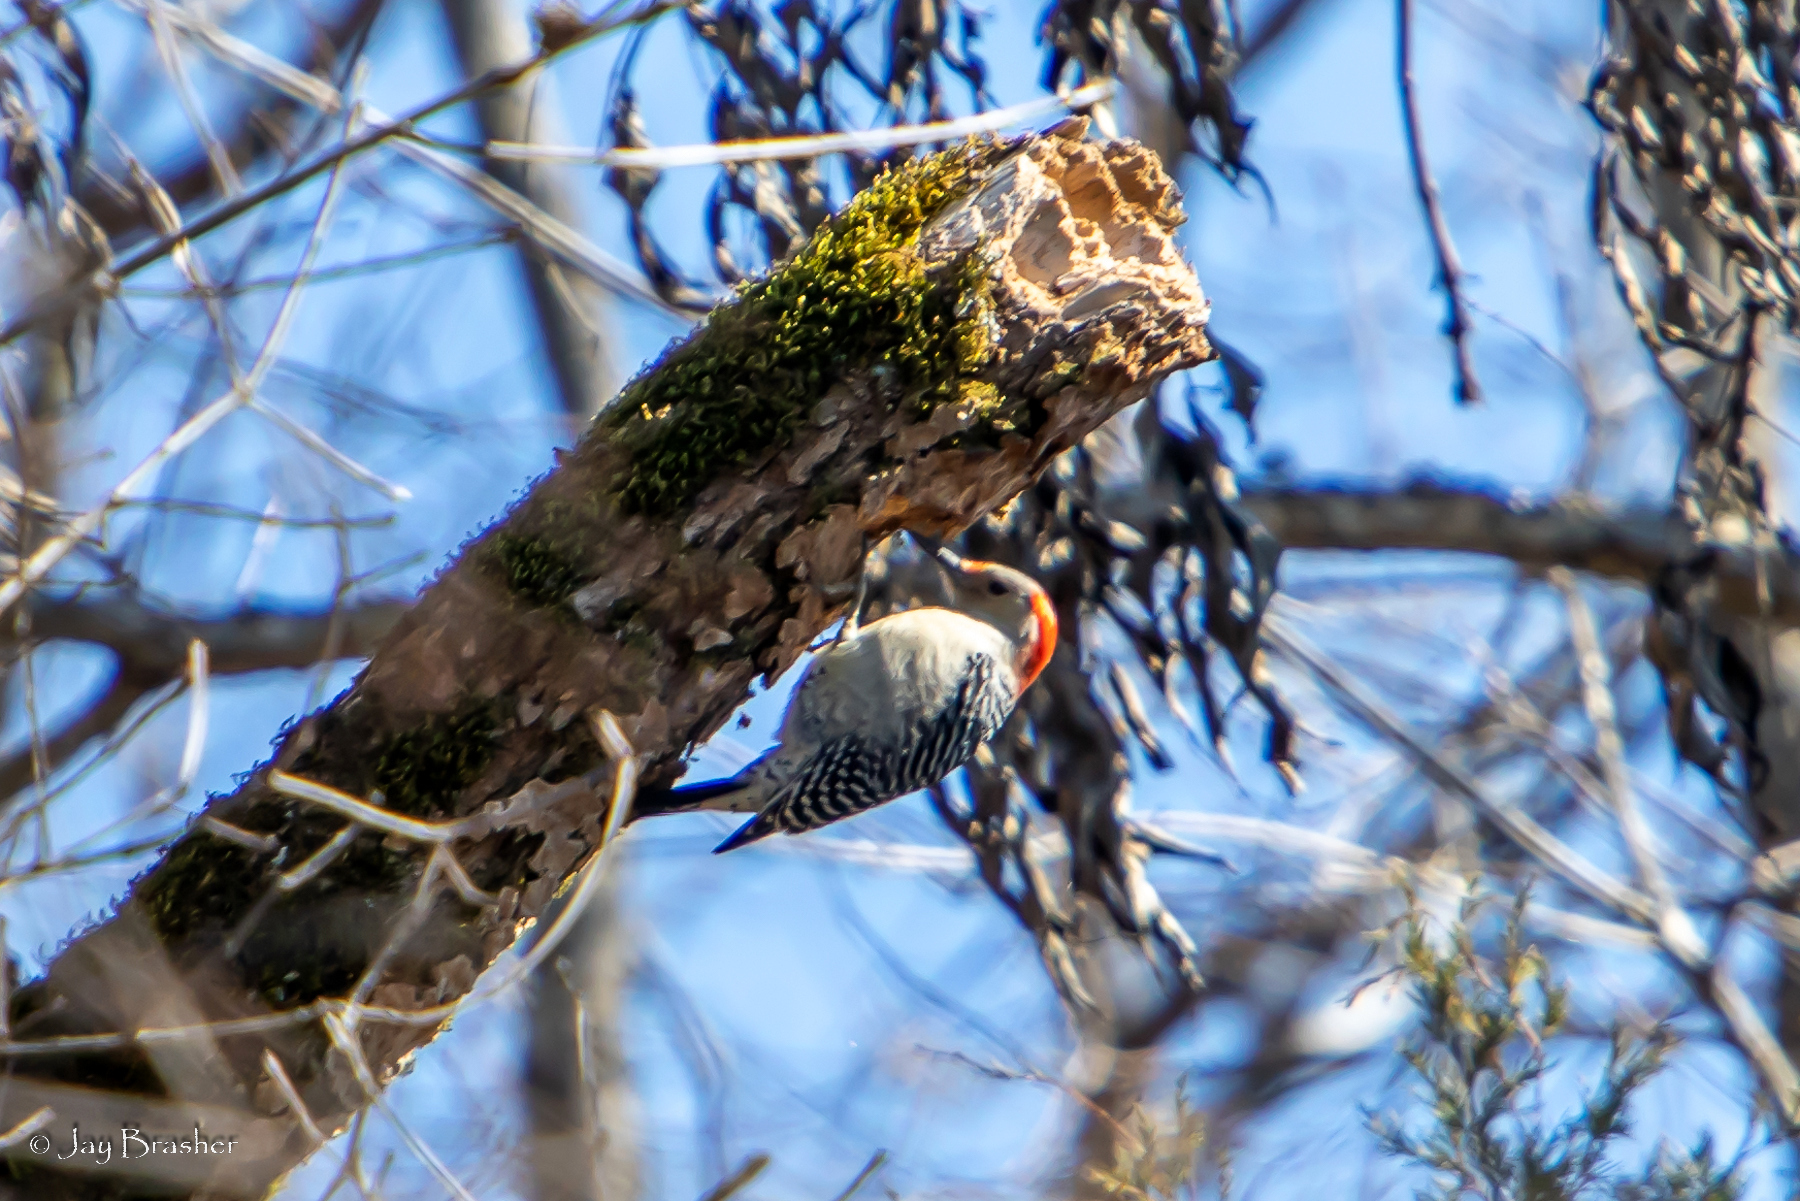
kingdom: Animalia
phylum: Chordata
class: Aves
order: Piciformes
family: Picidae
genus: Melanerpes
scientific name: Melanerpes carolinus
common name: Red-bellied woodpecker
